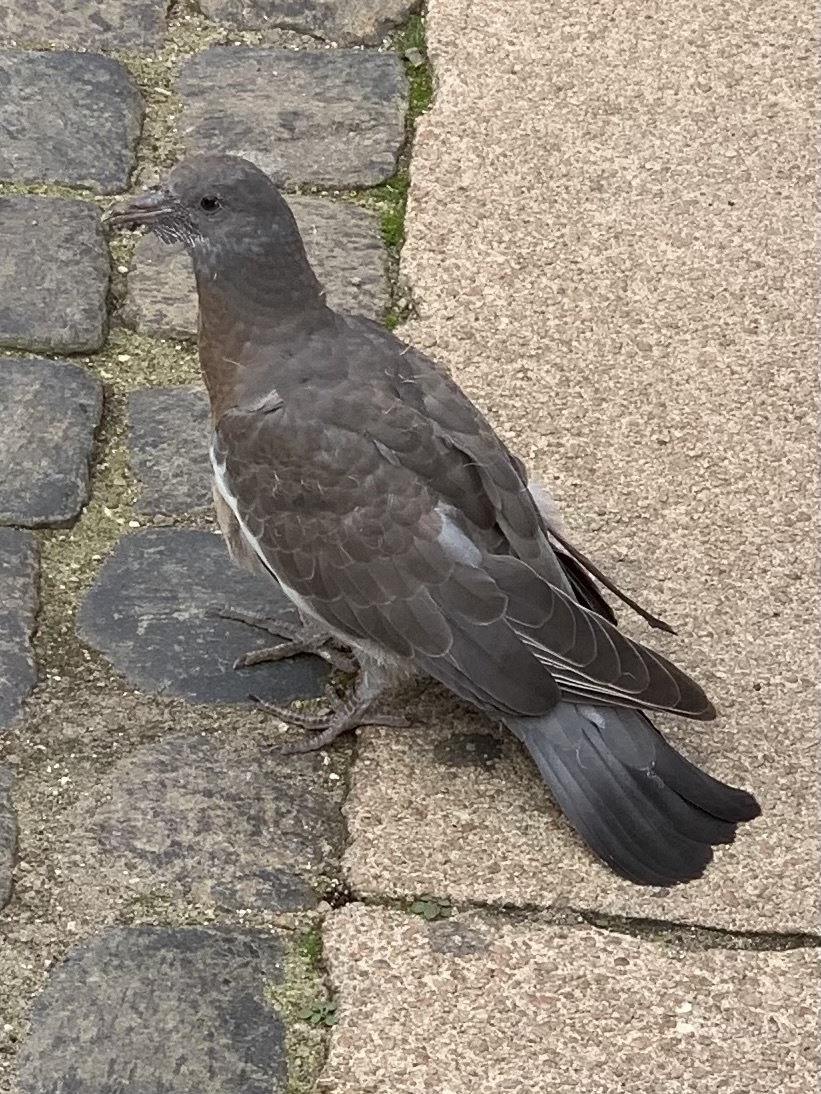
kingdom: Animalia
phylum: Chordata
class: Aves
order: Columbiformes
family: Columbidae
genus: Columba
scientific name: Columba palumbus
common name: Common wood pigeon
